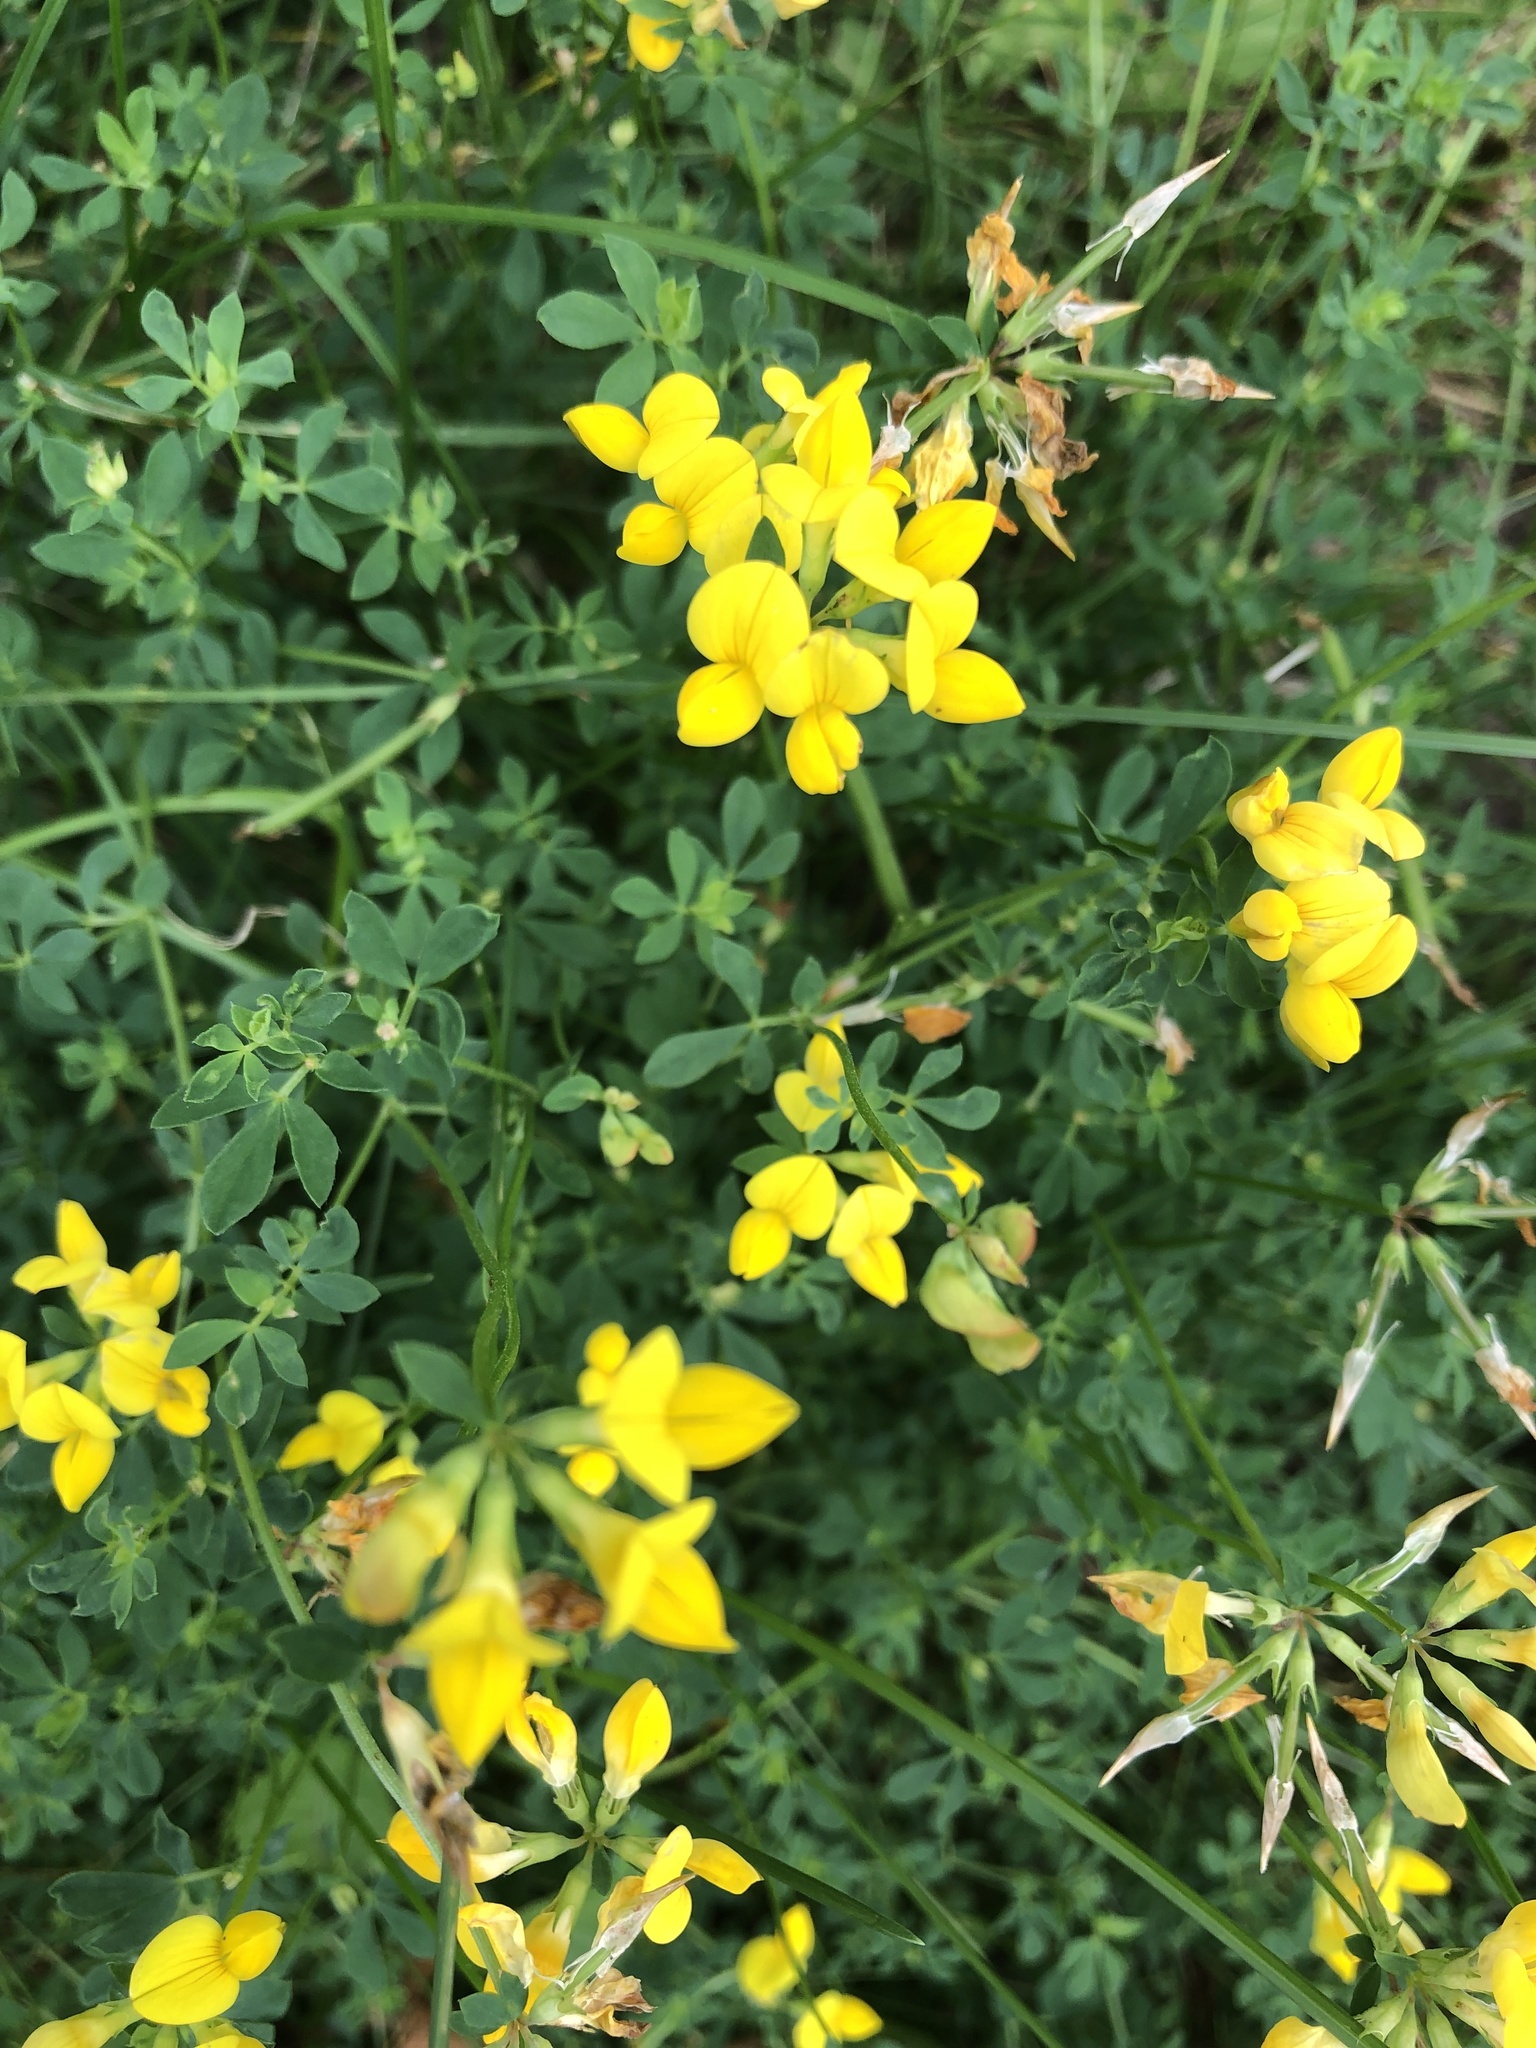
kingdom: Plantae
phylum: Tracheophyta
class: Magnoliopsida
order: Fabales
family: Fabaceae
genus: Lotus
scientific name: Lotus corniculatus
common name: Common bird's-foot-trefoil
